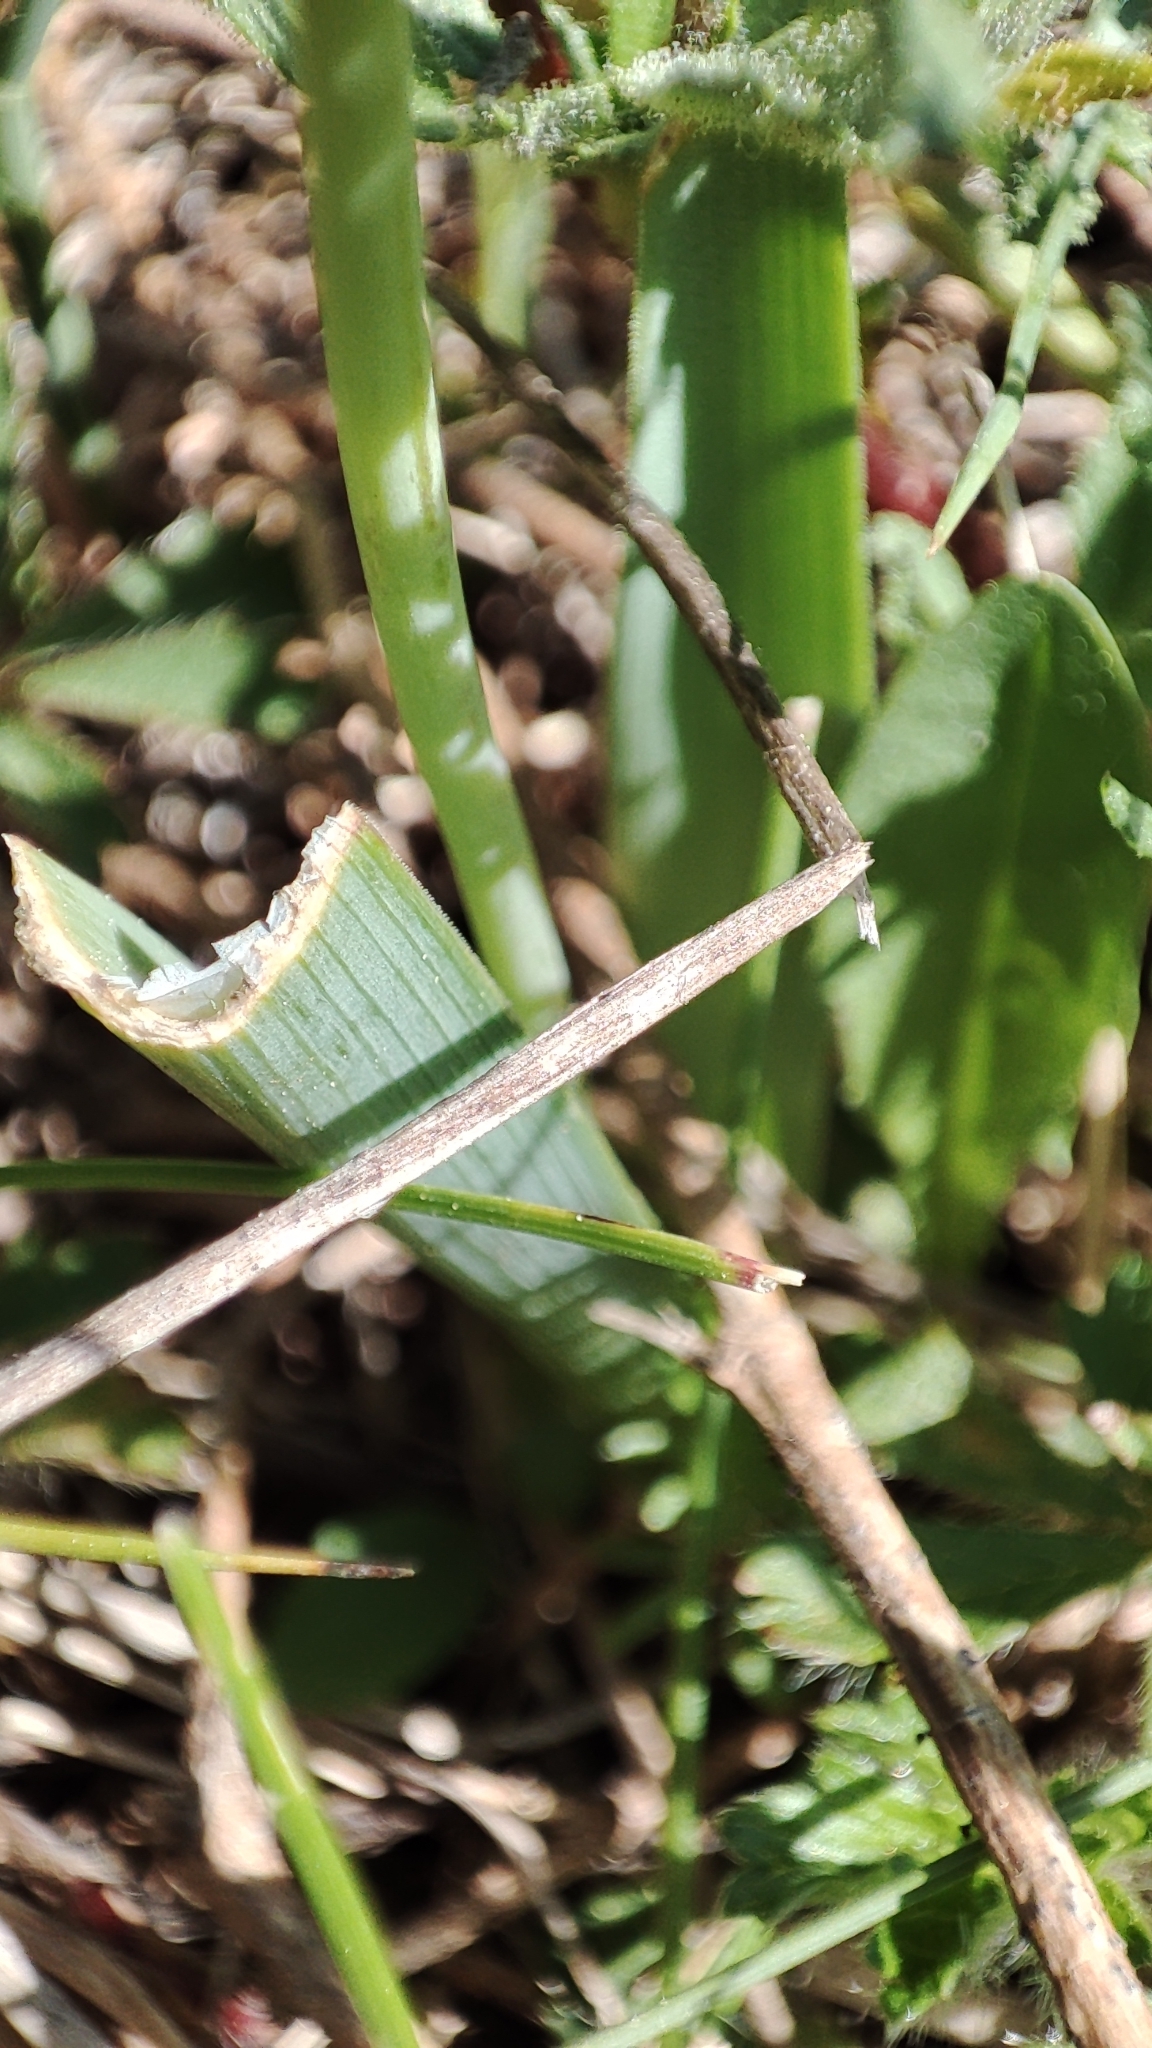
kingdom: Plantae
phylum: Tracheophyta
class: Liliopsida
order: Asparagales
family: Asparagaceae
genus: Muscari
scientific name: Muscari comosum
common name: Tassel hyacinth
